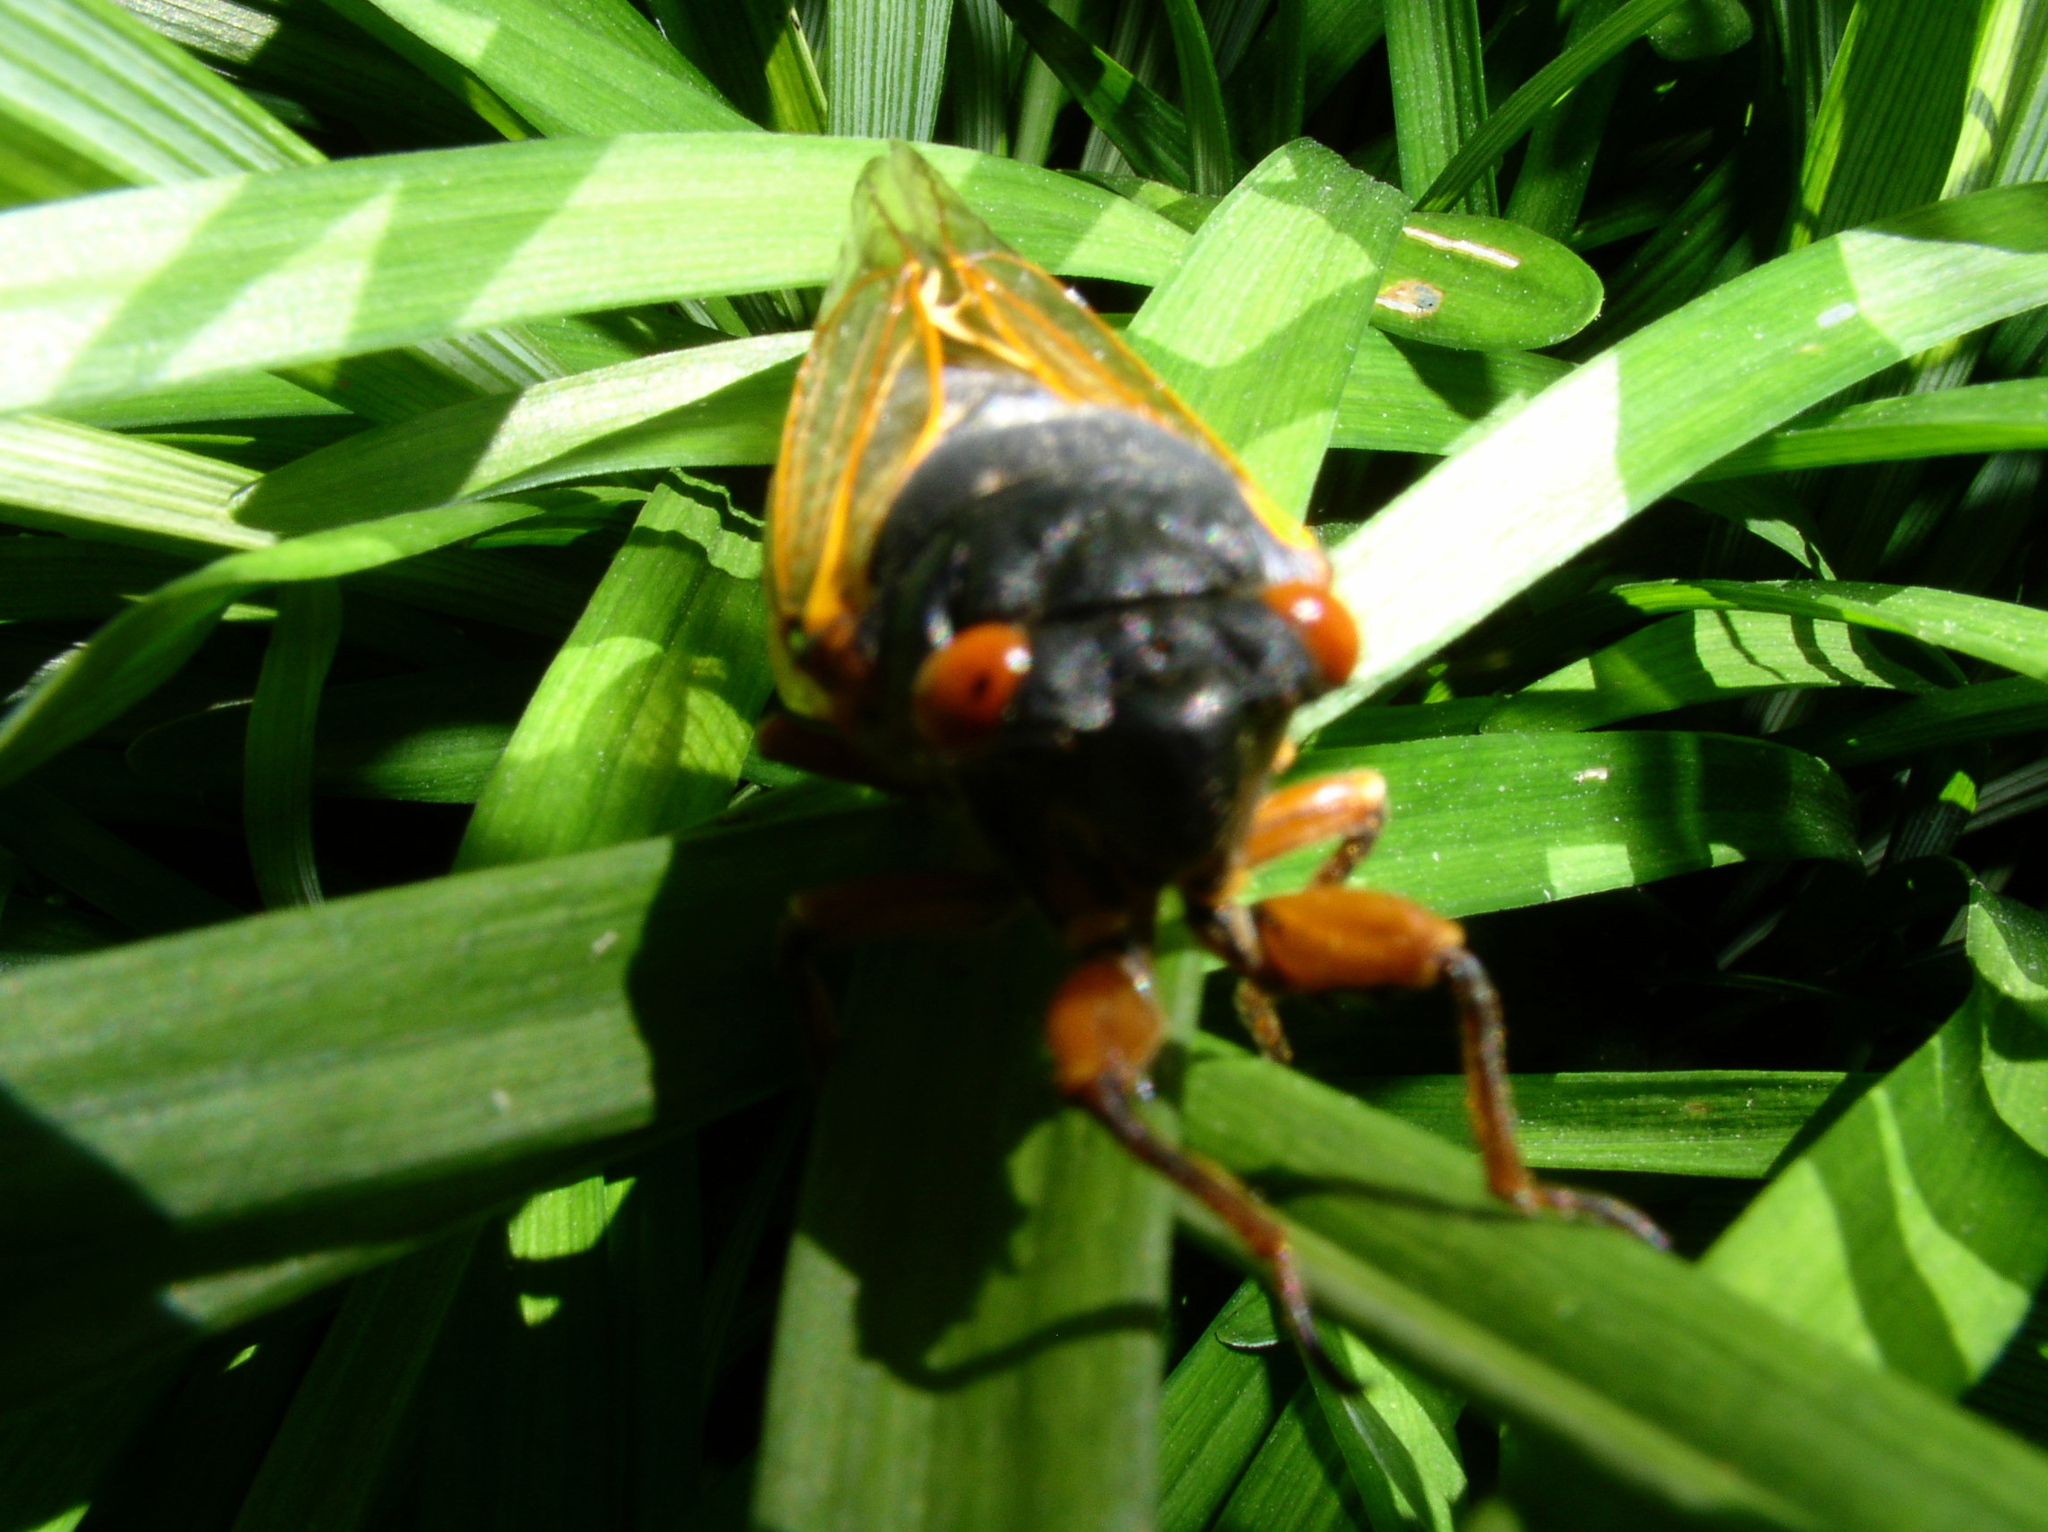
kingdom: Animalia
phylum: Arthropoda
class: Insecta
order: Hemiptera
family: Cicadidae
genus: Magicicada
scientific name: Magicicada
